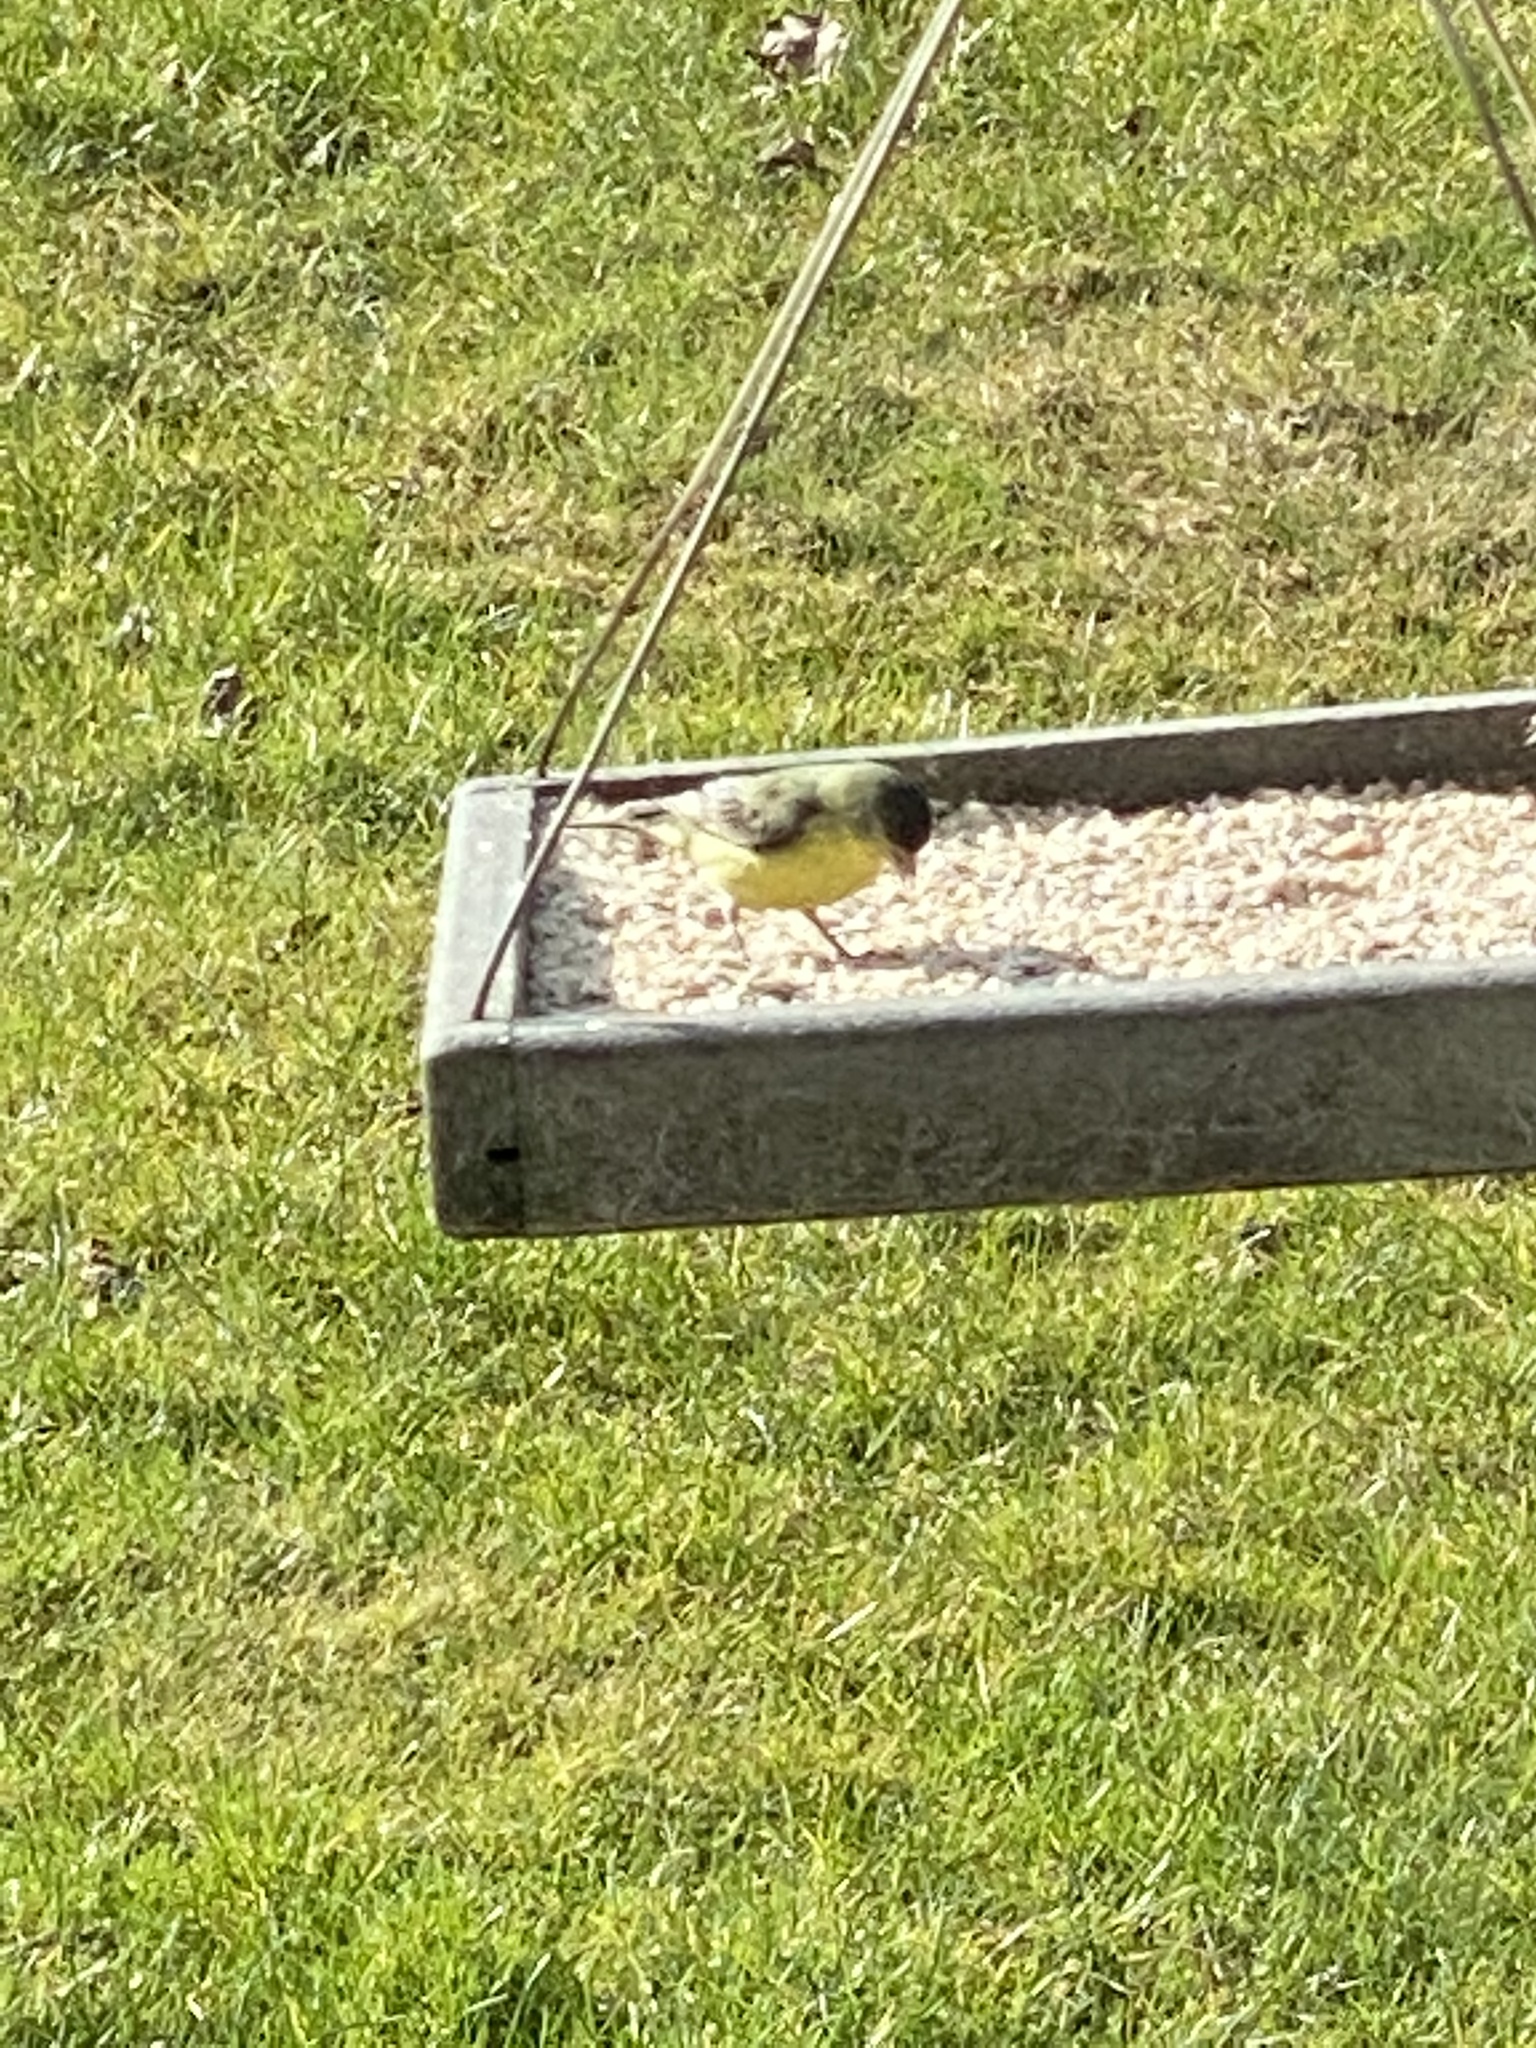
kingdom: Animalia
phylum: Chordata
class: Aves
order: Passeriformes
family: Fringillidae
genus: Spinus
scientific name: Spinus psaltria
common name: Lesser goldfinch
